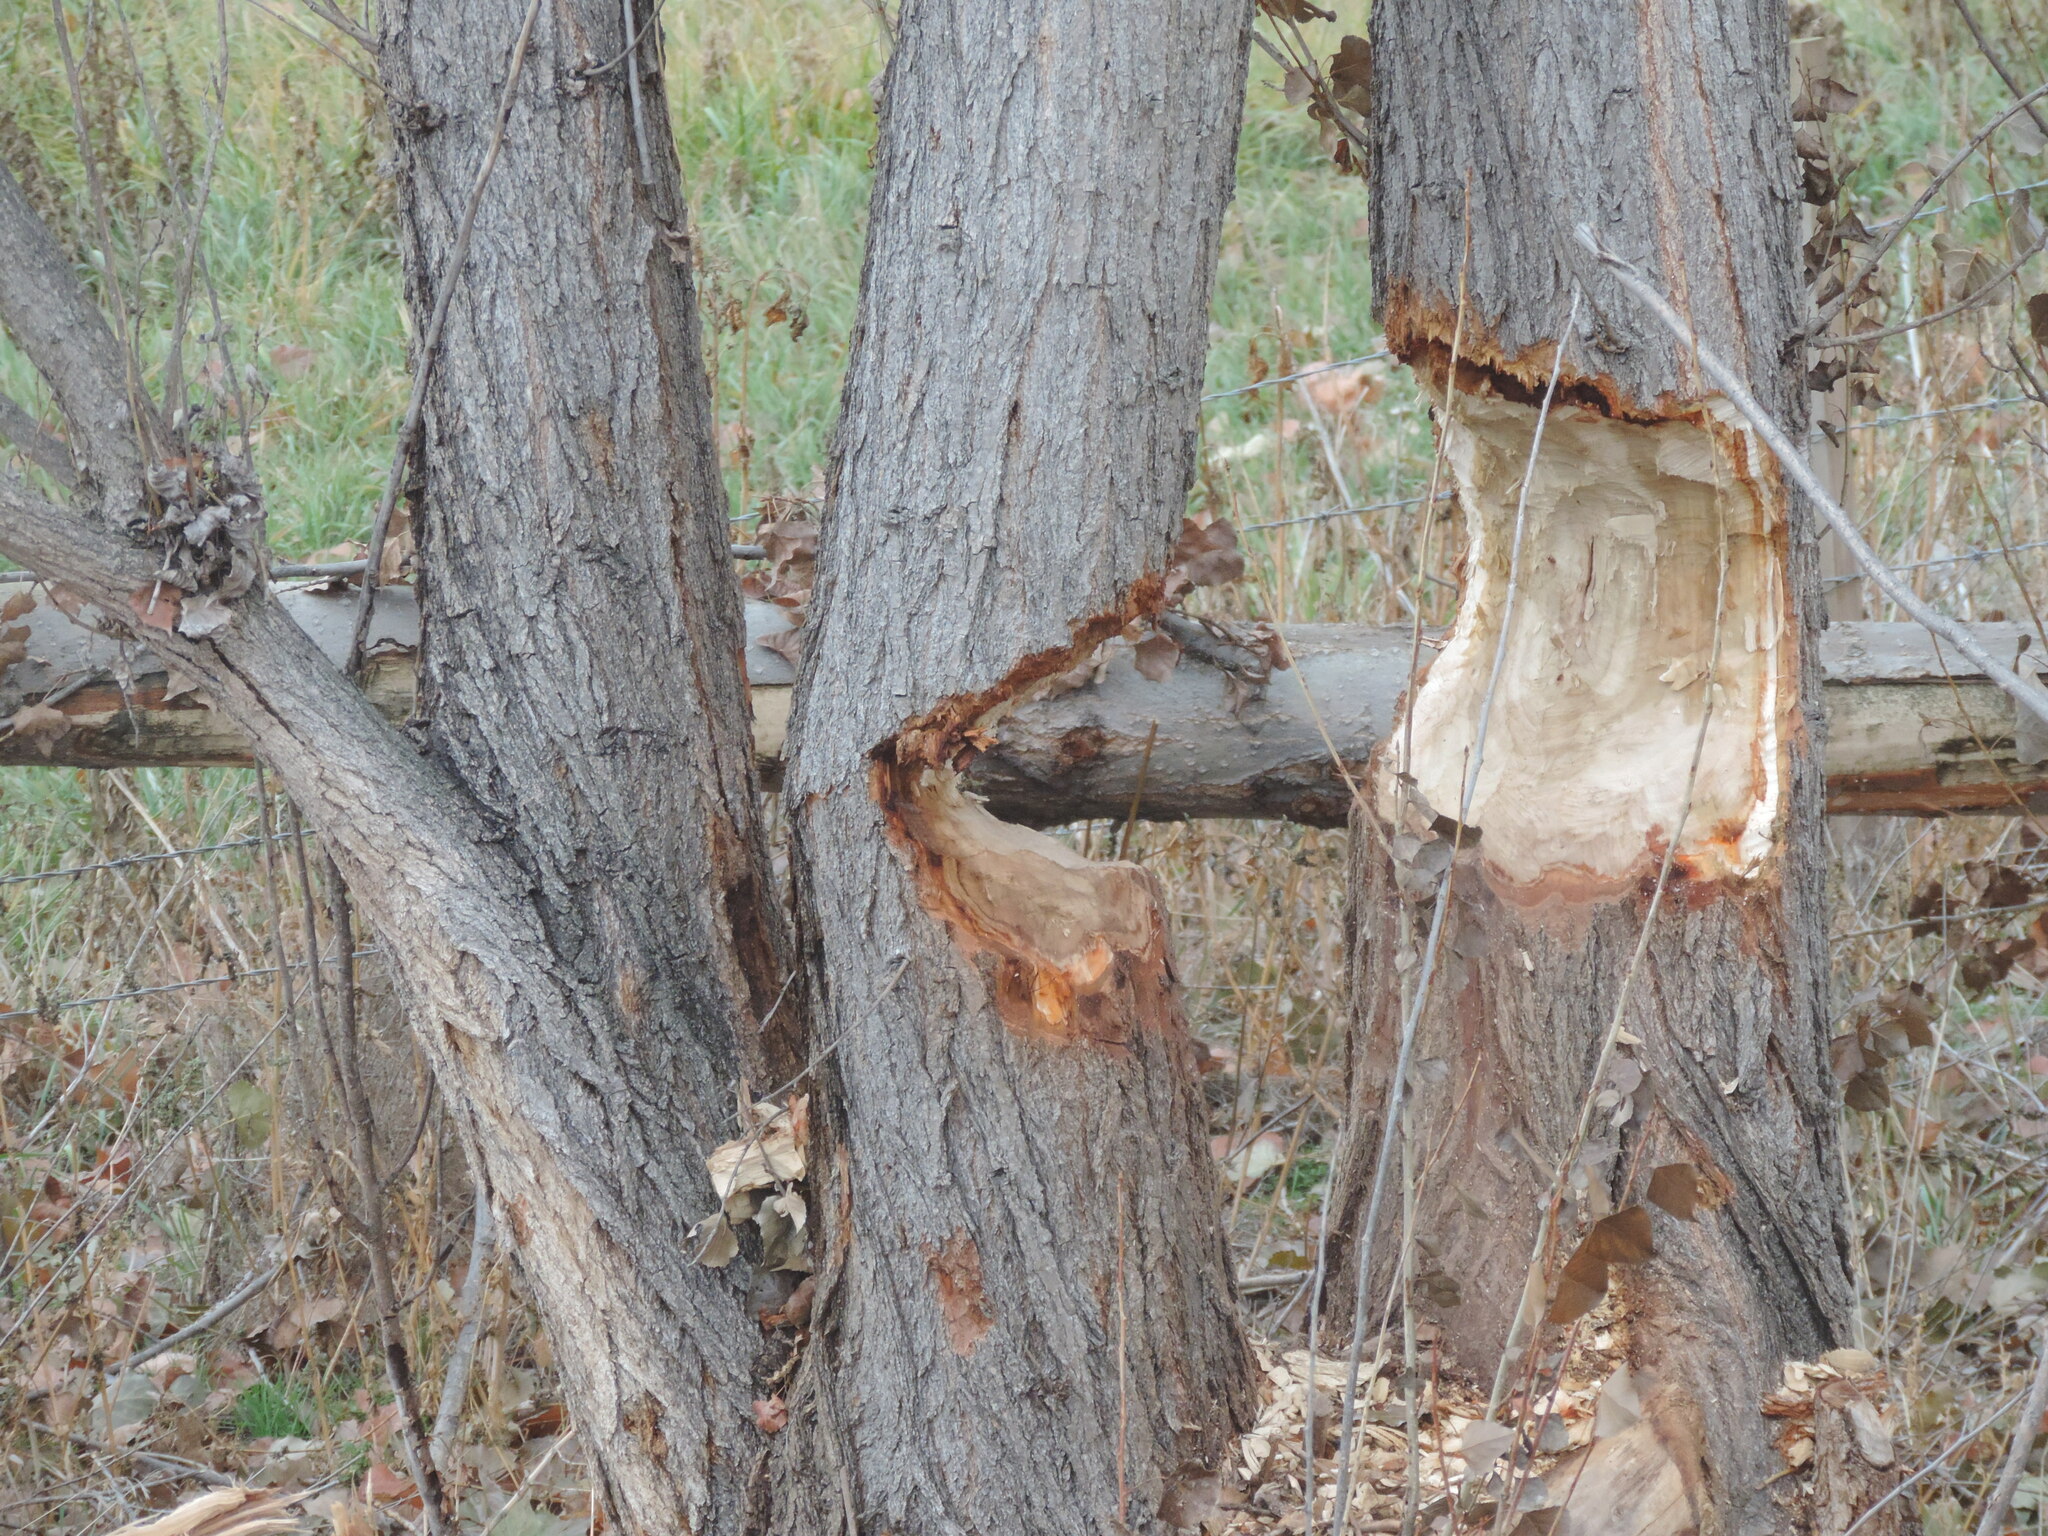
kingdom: Animalia
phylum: Chordata
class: Mammalia
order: Rodentia
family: Castoridae
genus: Castor
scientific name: Castor canadensis
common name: American beaver
